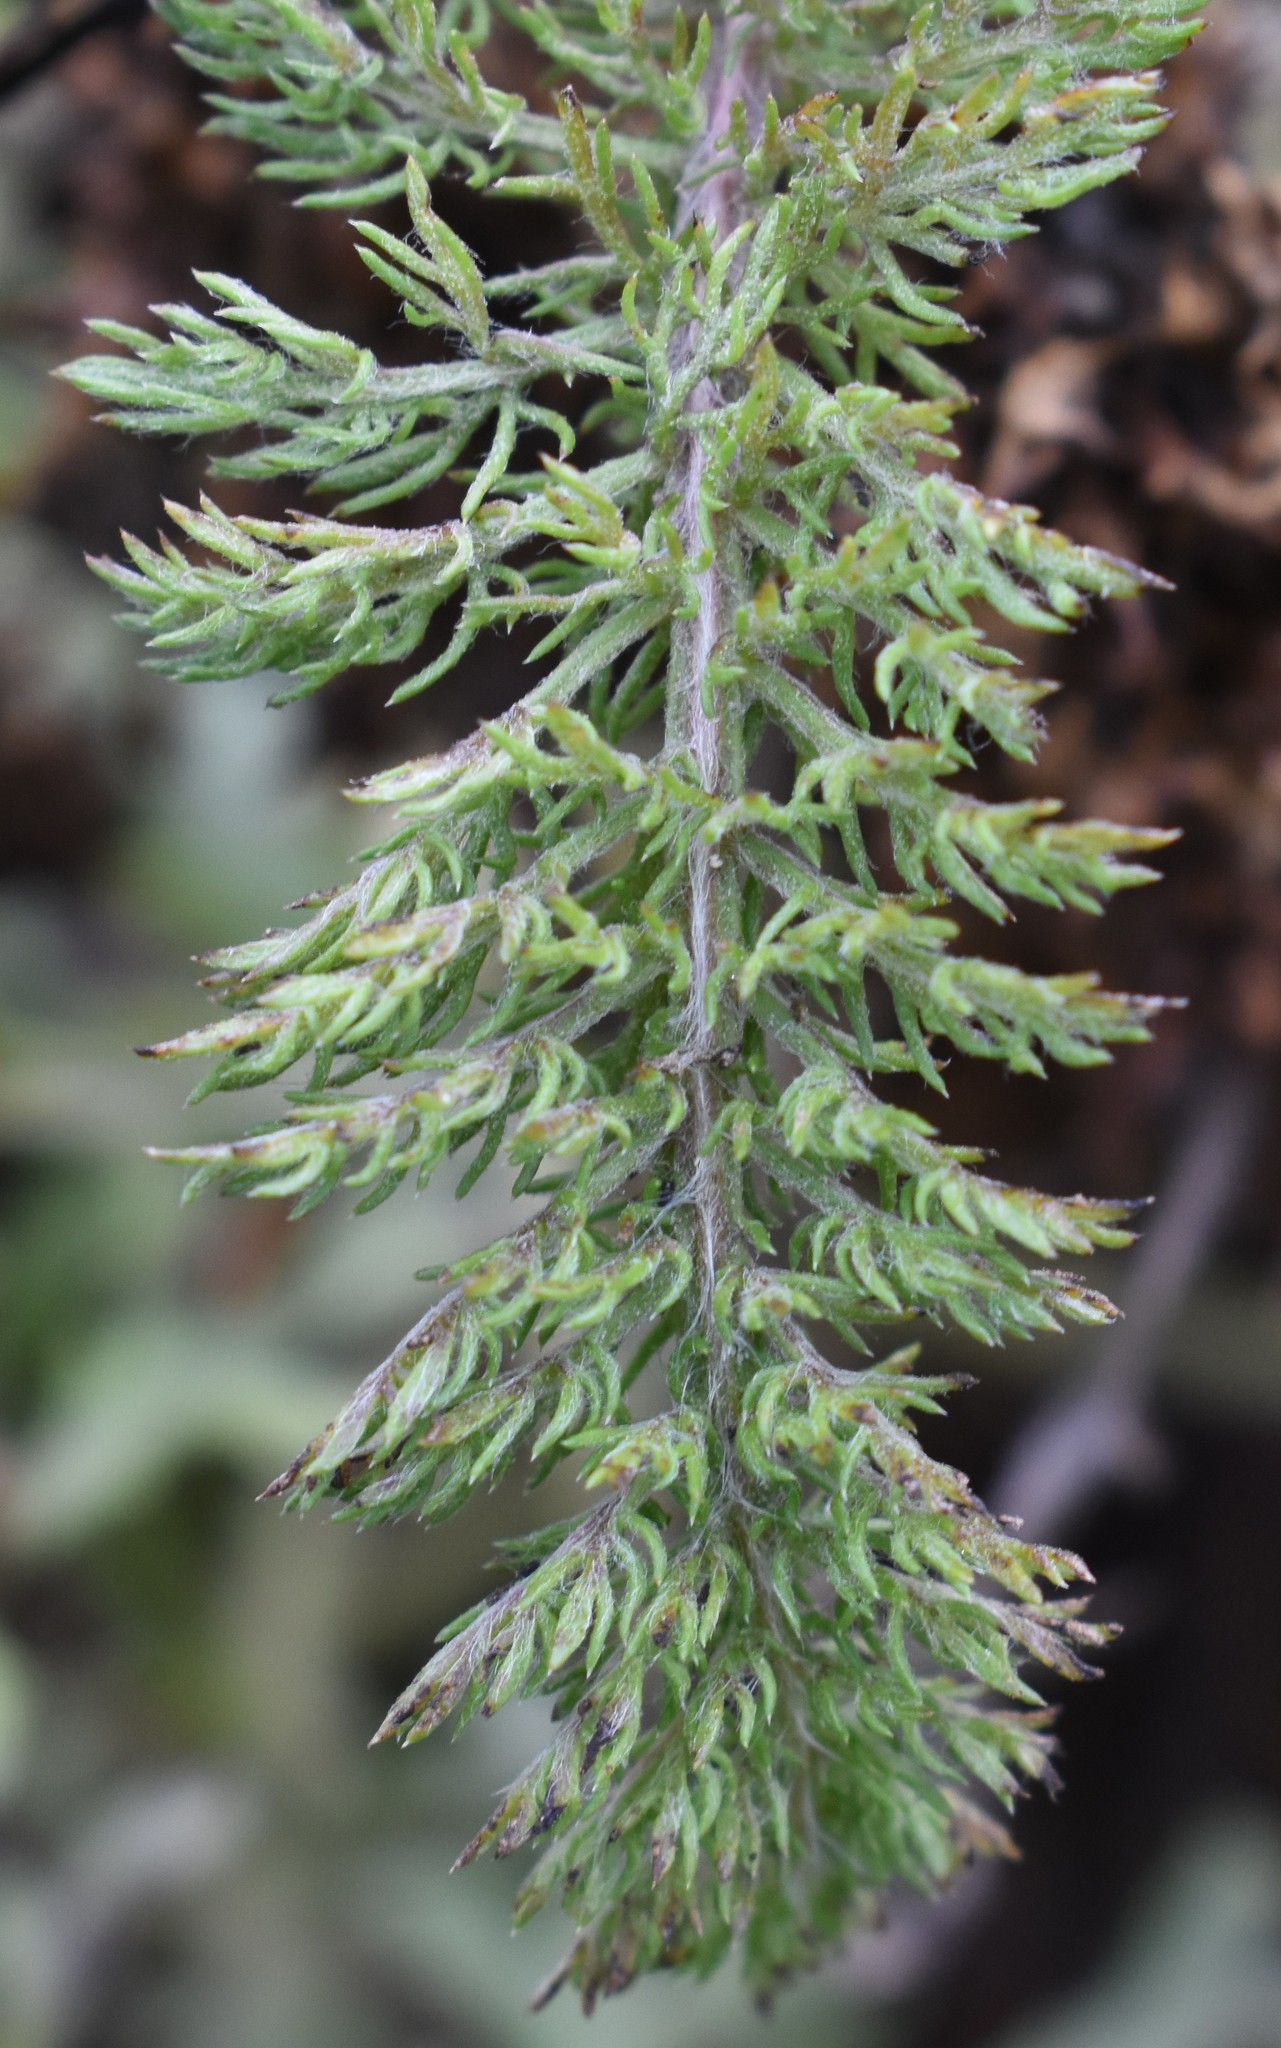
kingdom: Plantae
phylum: Tracheophyta
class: Magnoliopsida
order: Asterales
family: Asteraceae
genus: Achillea
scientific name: Achillea millefolium
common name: Yarrow
